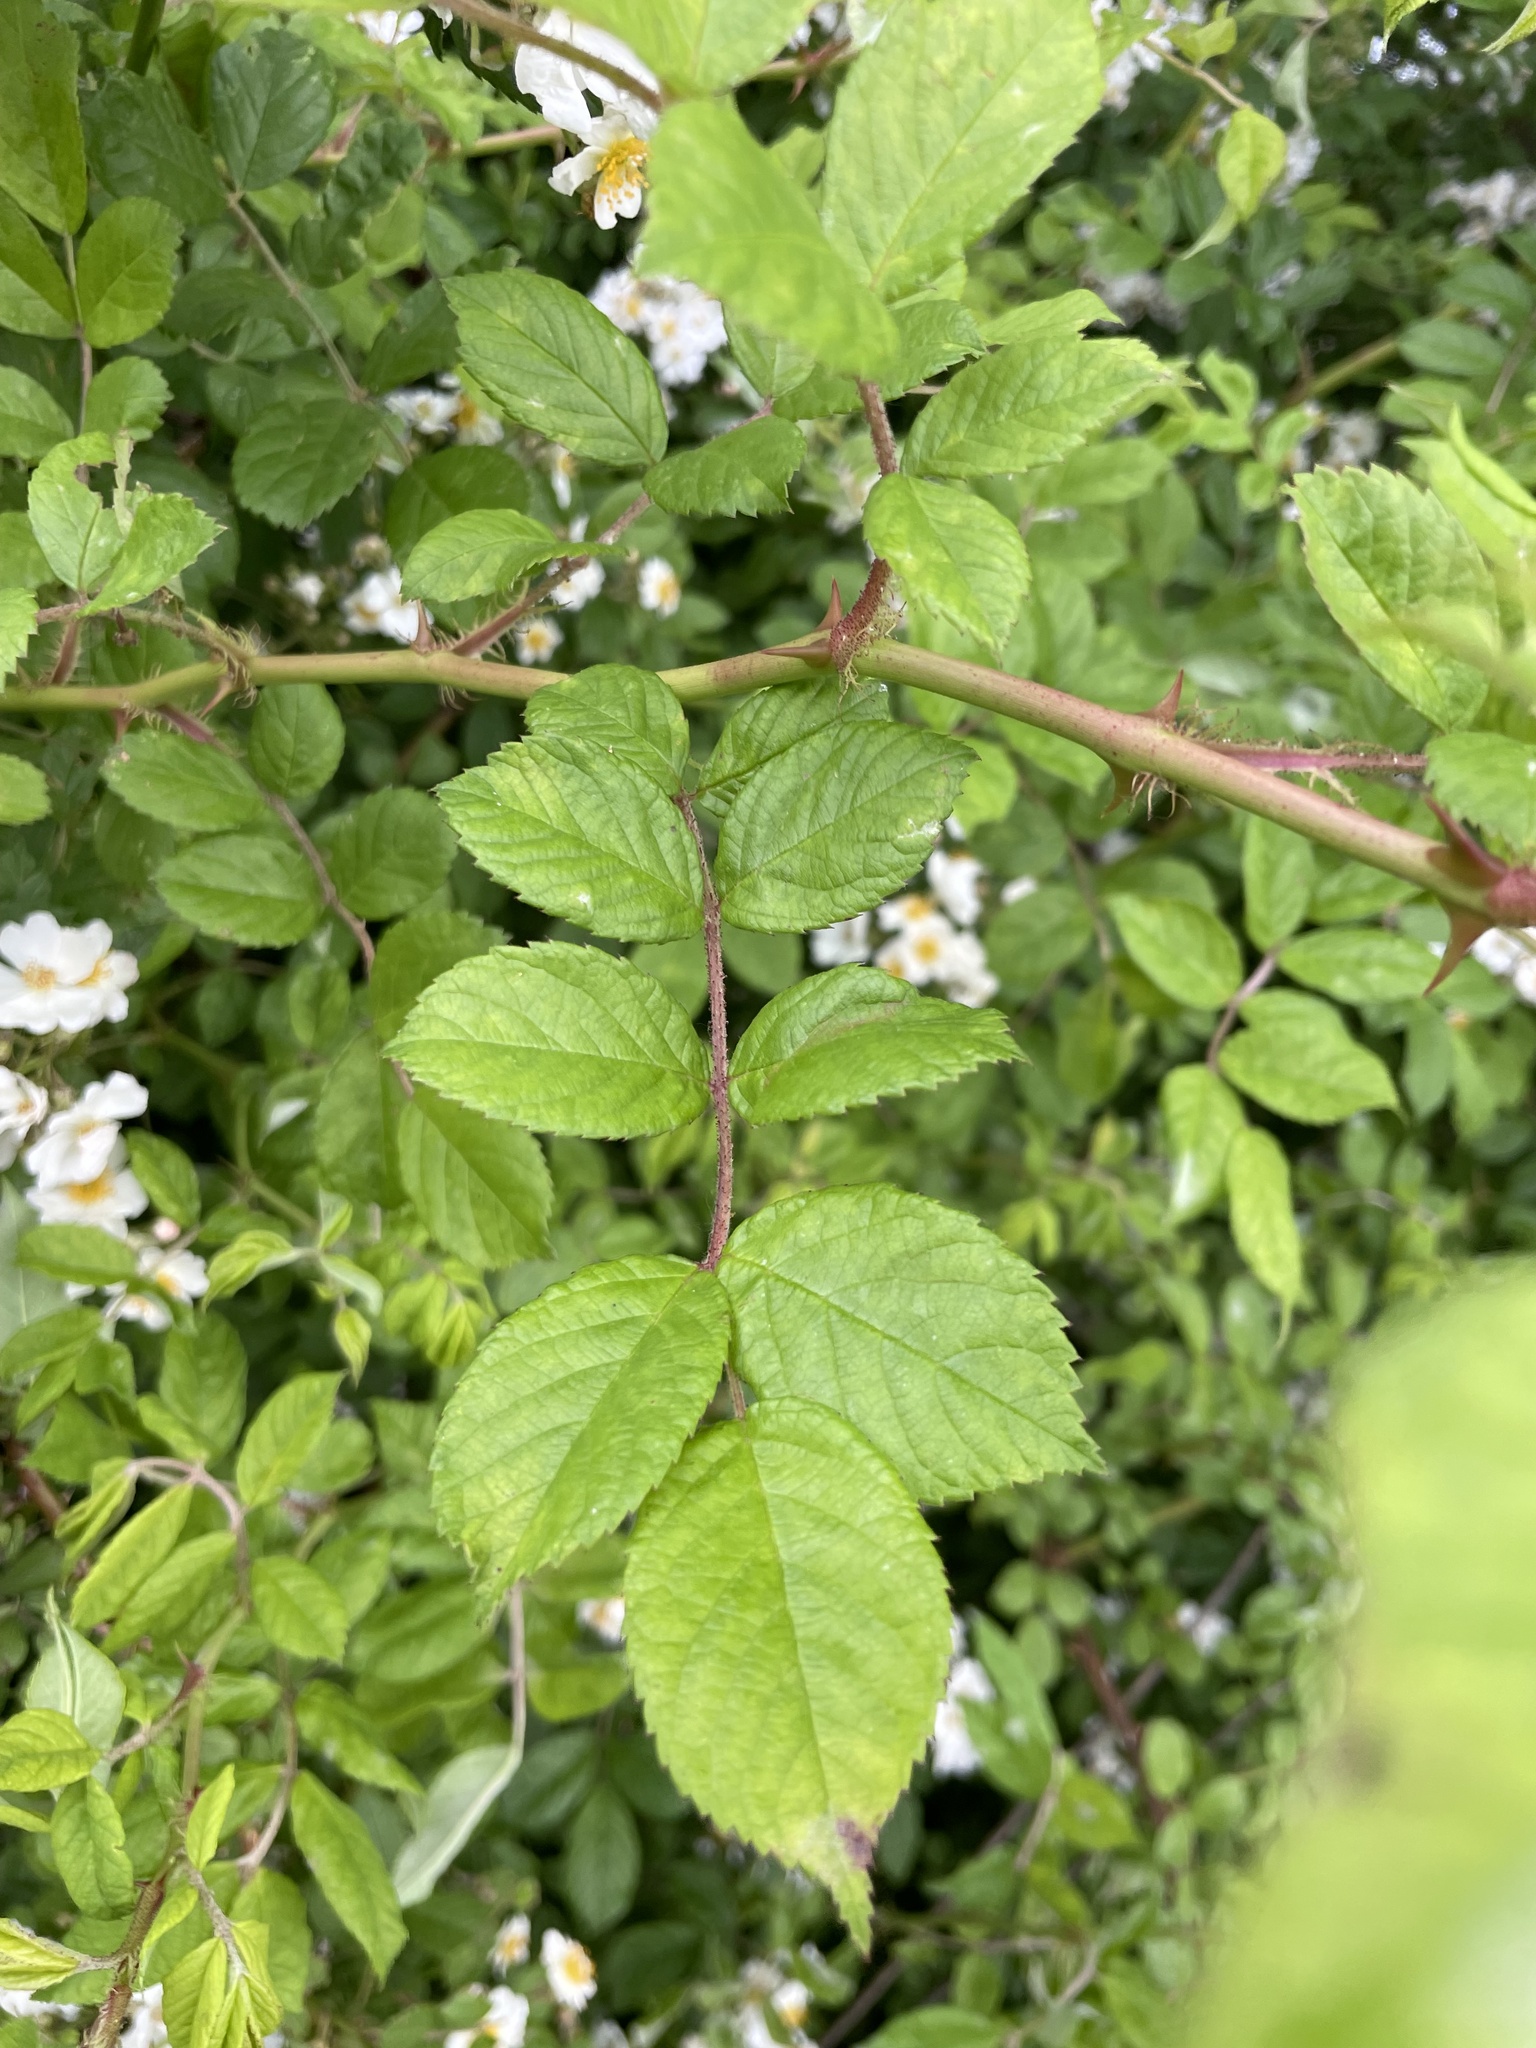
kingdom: Plantae
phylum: Tracheophyta
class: Magnoliopsida
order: Rosales
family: Rosaceae
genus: Rosa
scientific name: Rosa multiflora
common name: Multiflora rose
